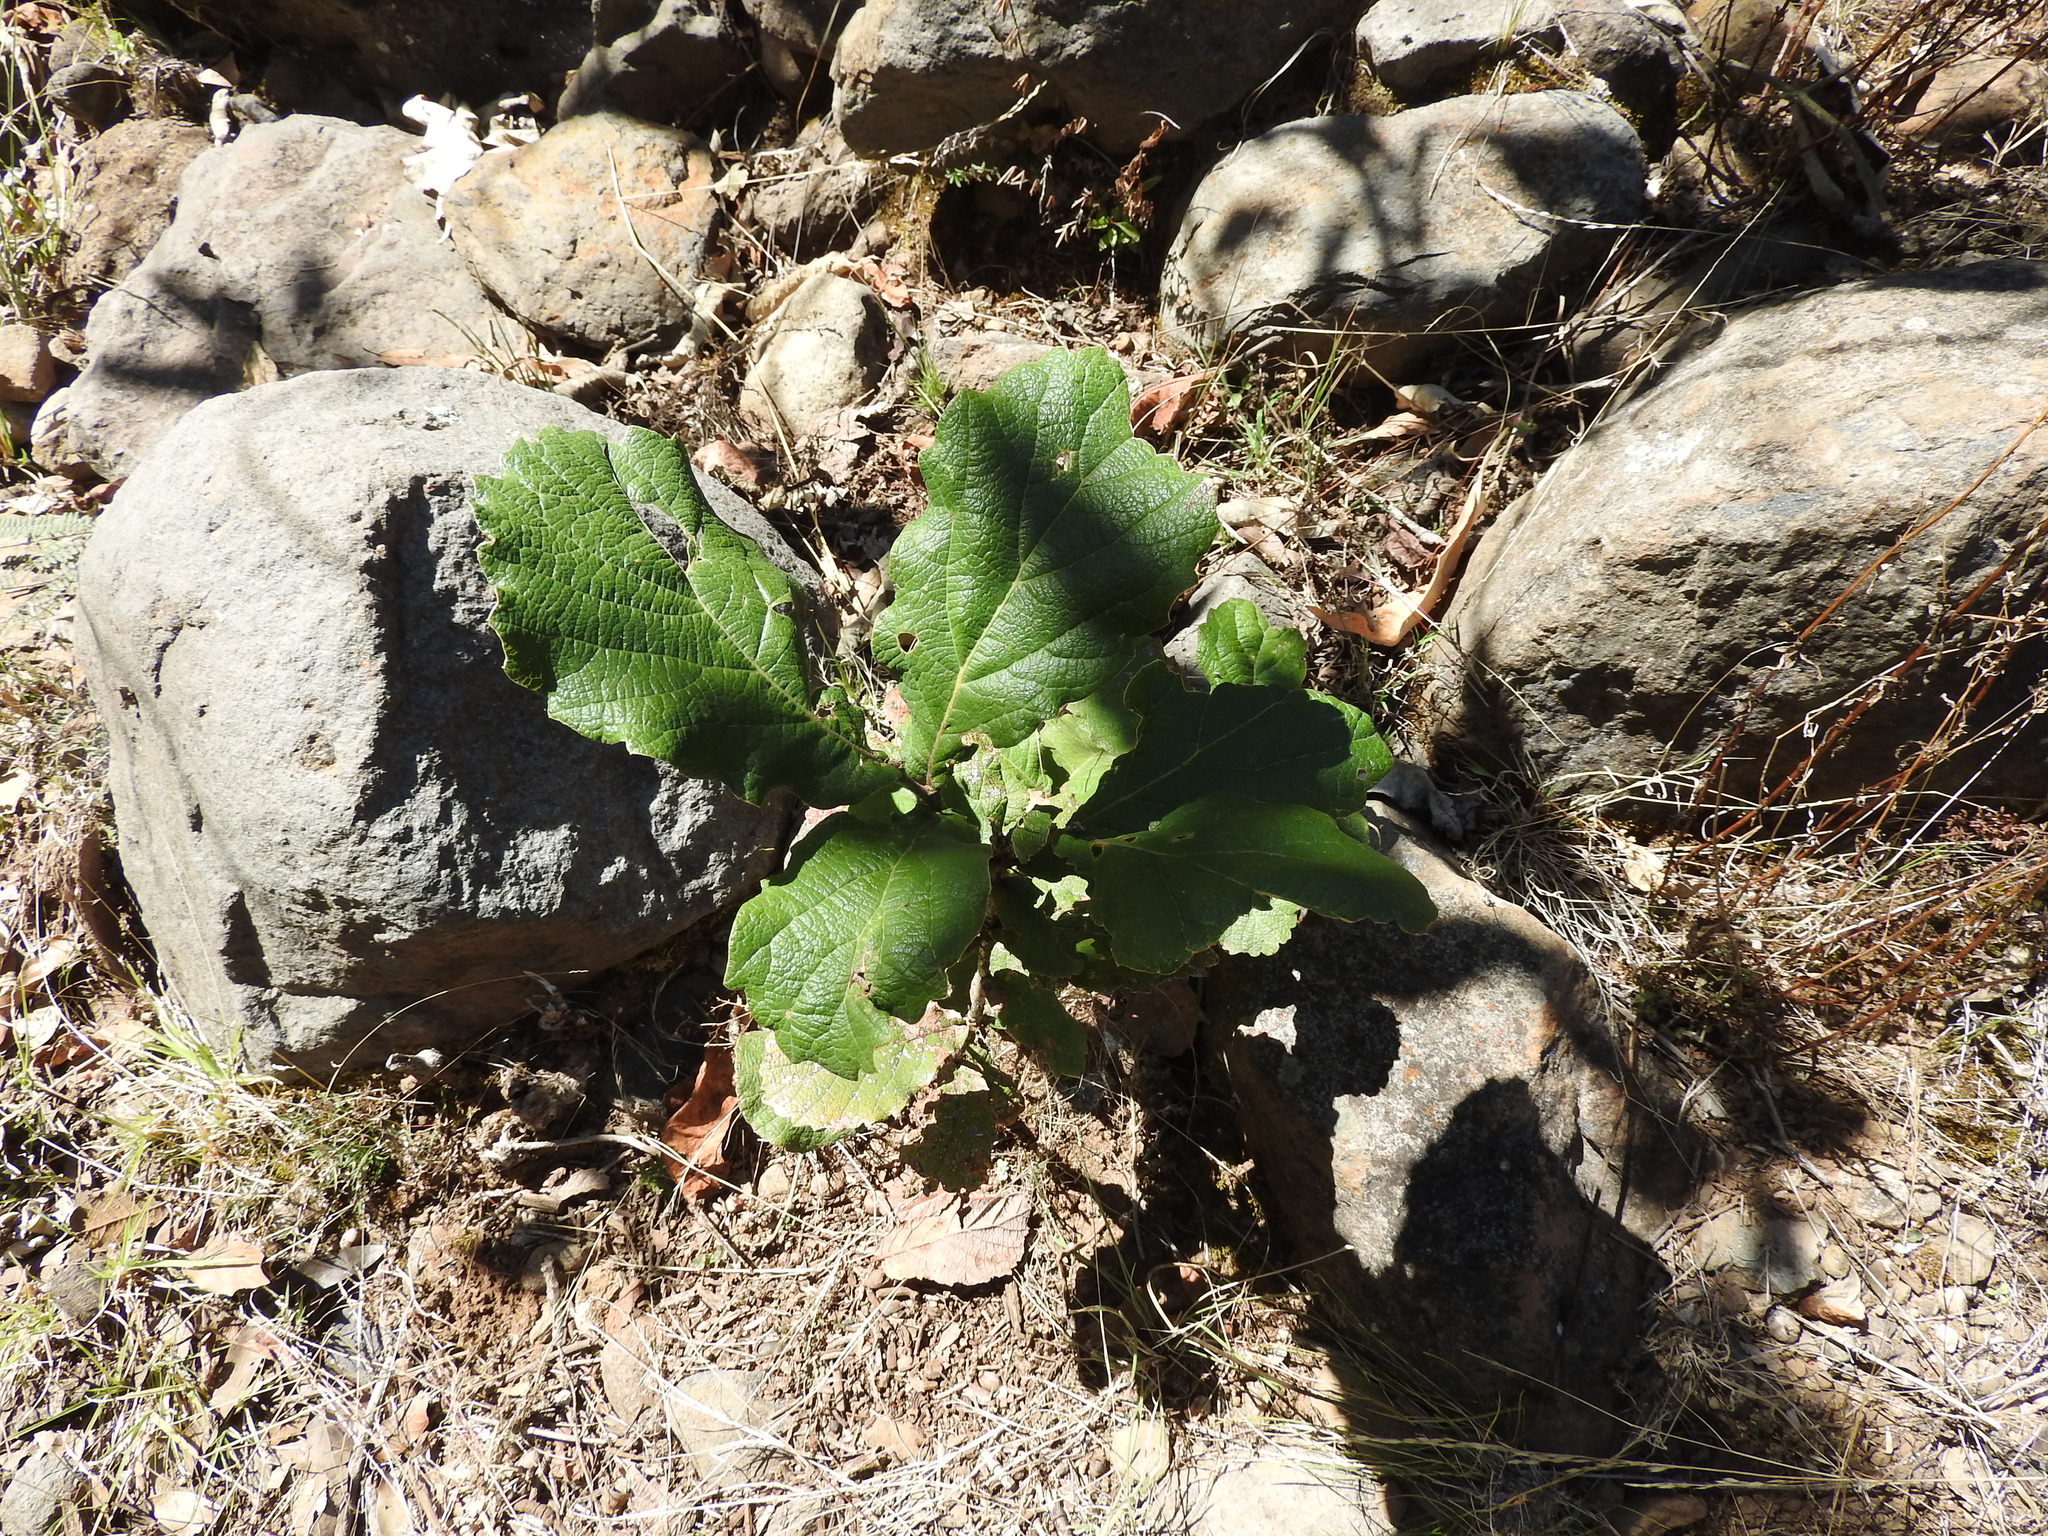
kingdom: Plantae
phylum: Tracheophyta
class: Magnoliopsida
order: Fagales
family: Fagaceae
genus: Quercus
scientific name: Quercus
